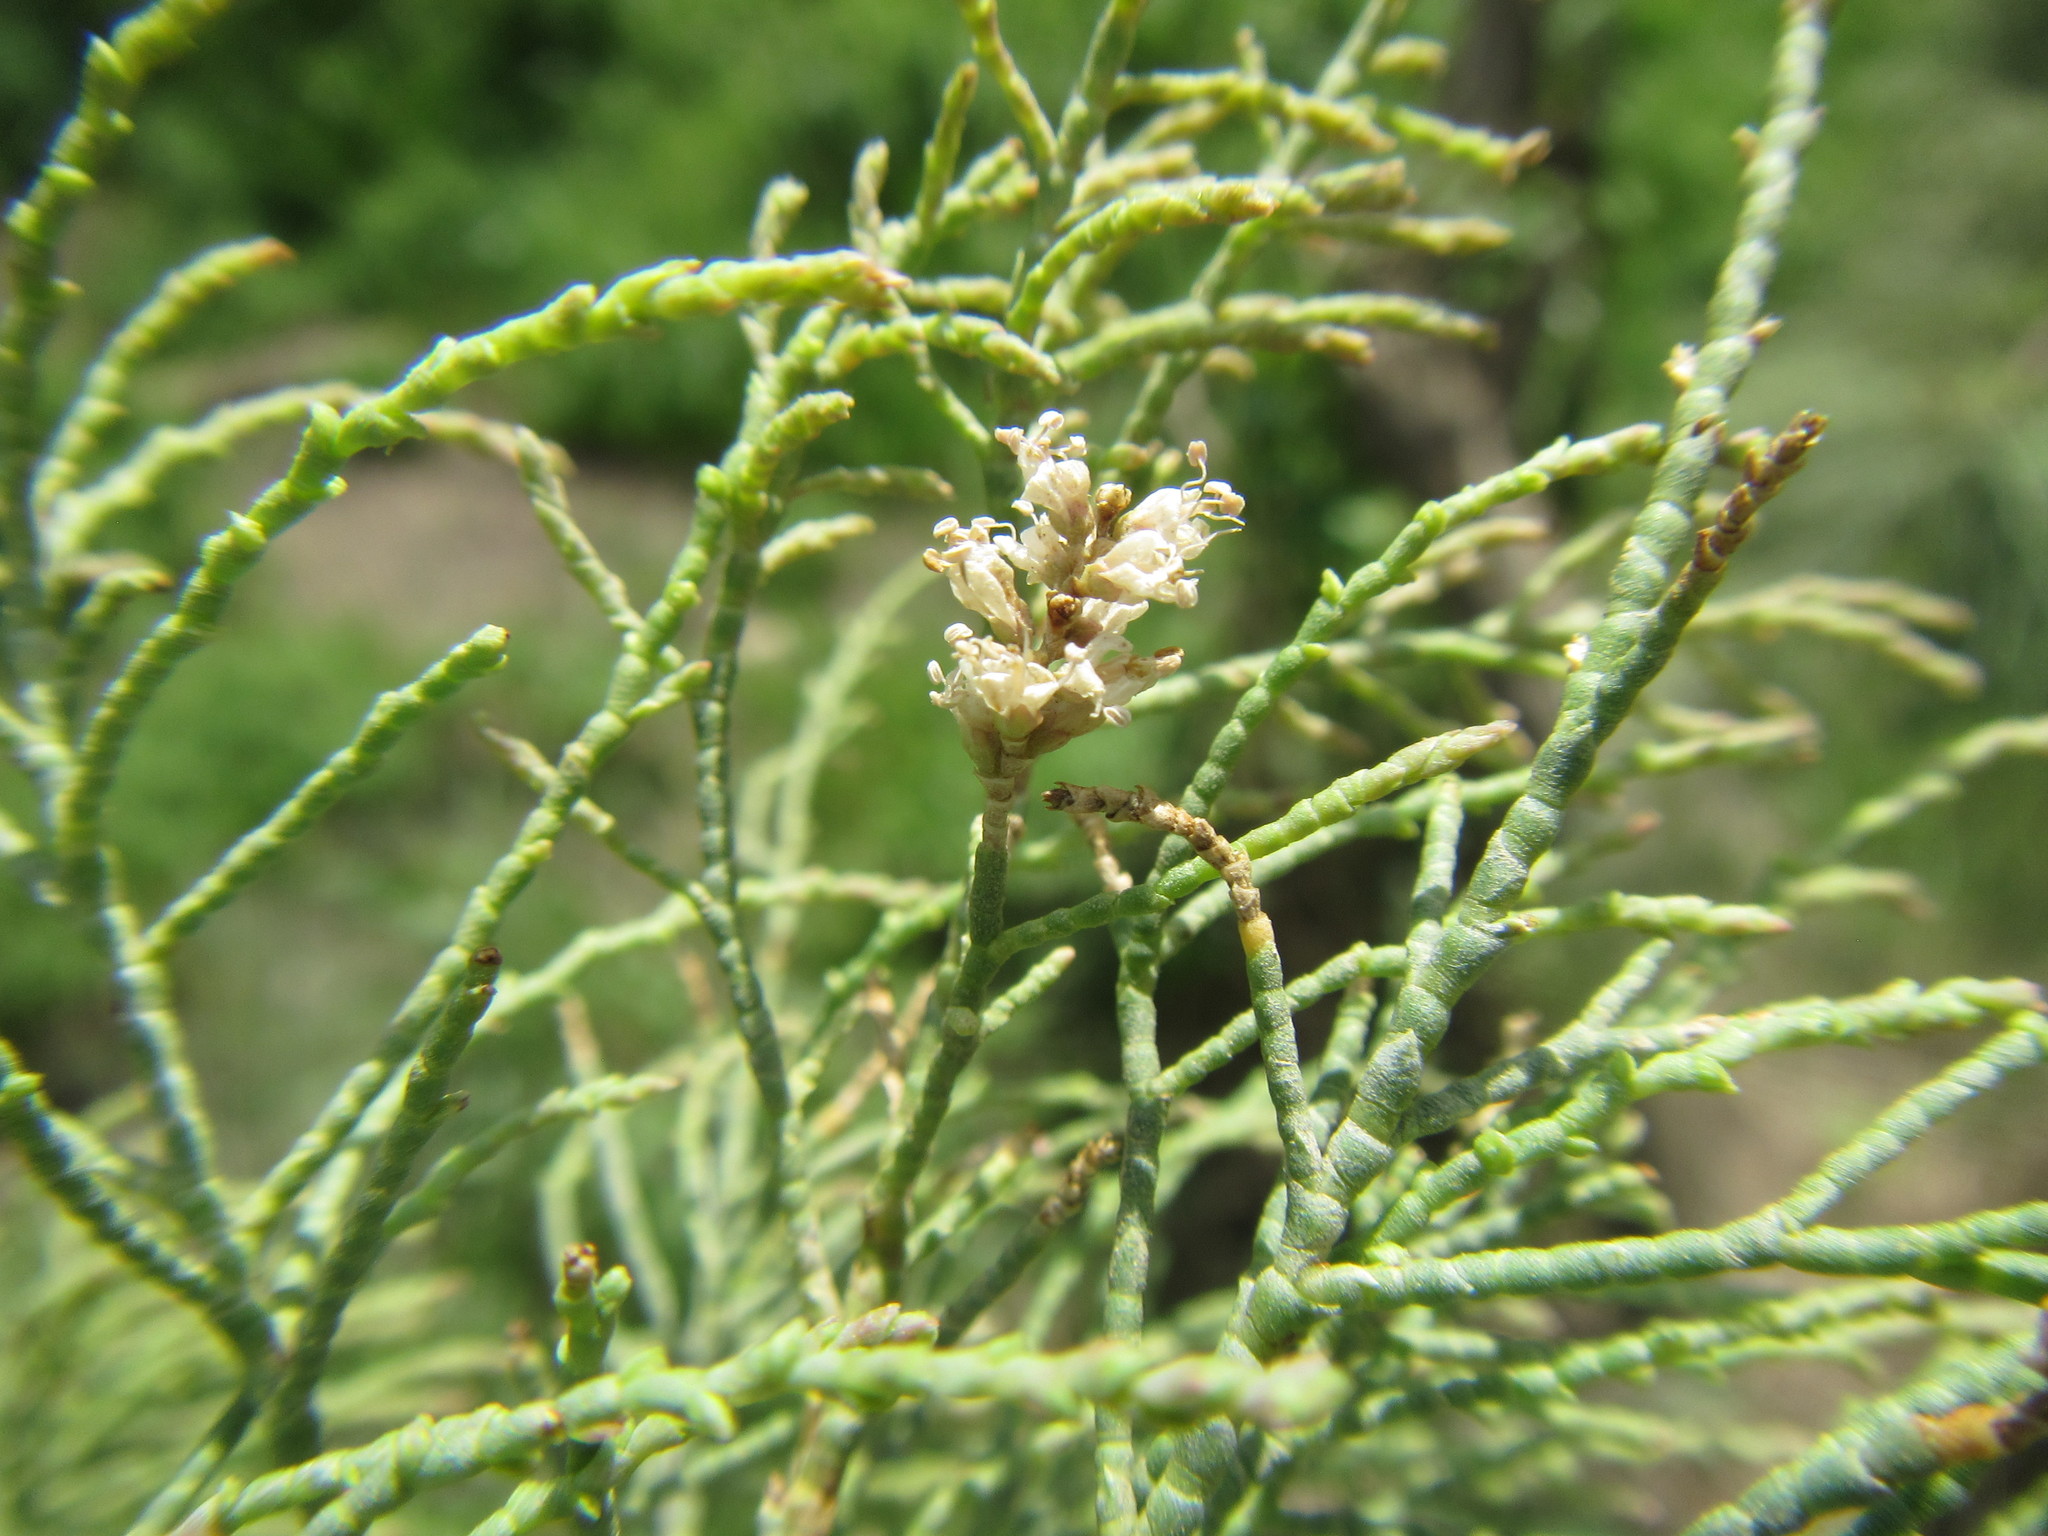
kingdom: Plantae
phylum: Tracheophyta
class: Magnoliopsida
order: Caryophyllales
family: Tamaricaceae
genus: Tamarix
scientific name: Tamarix usneoides
